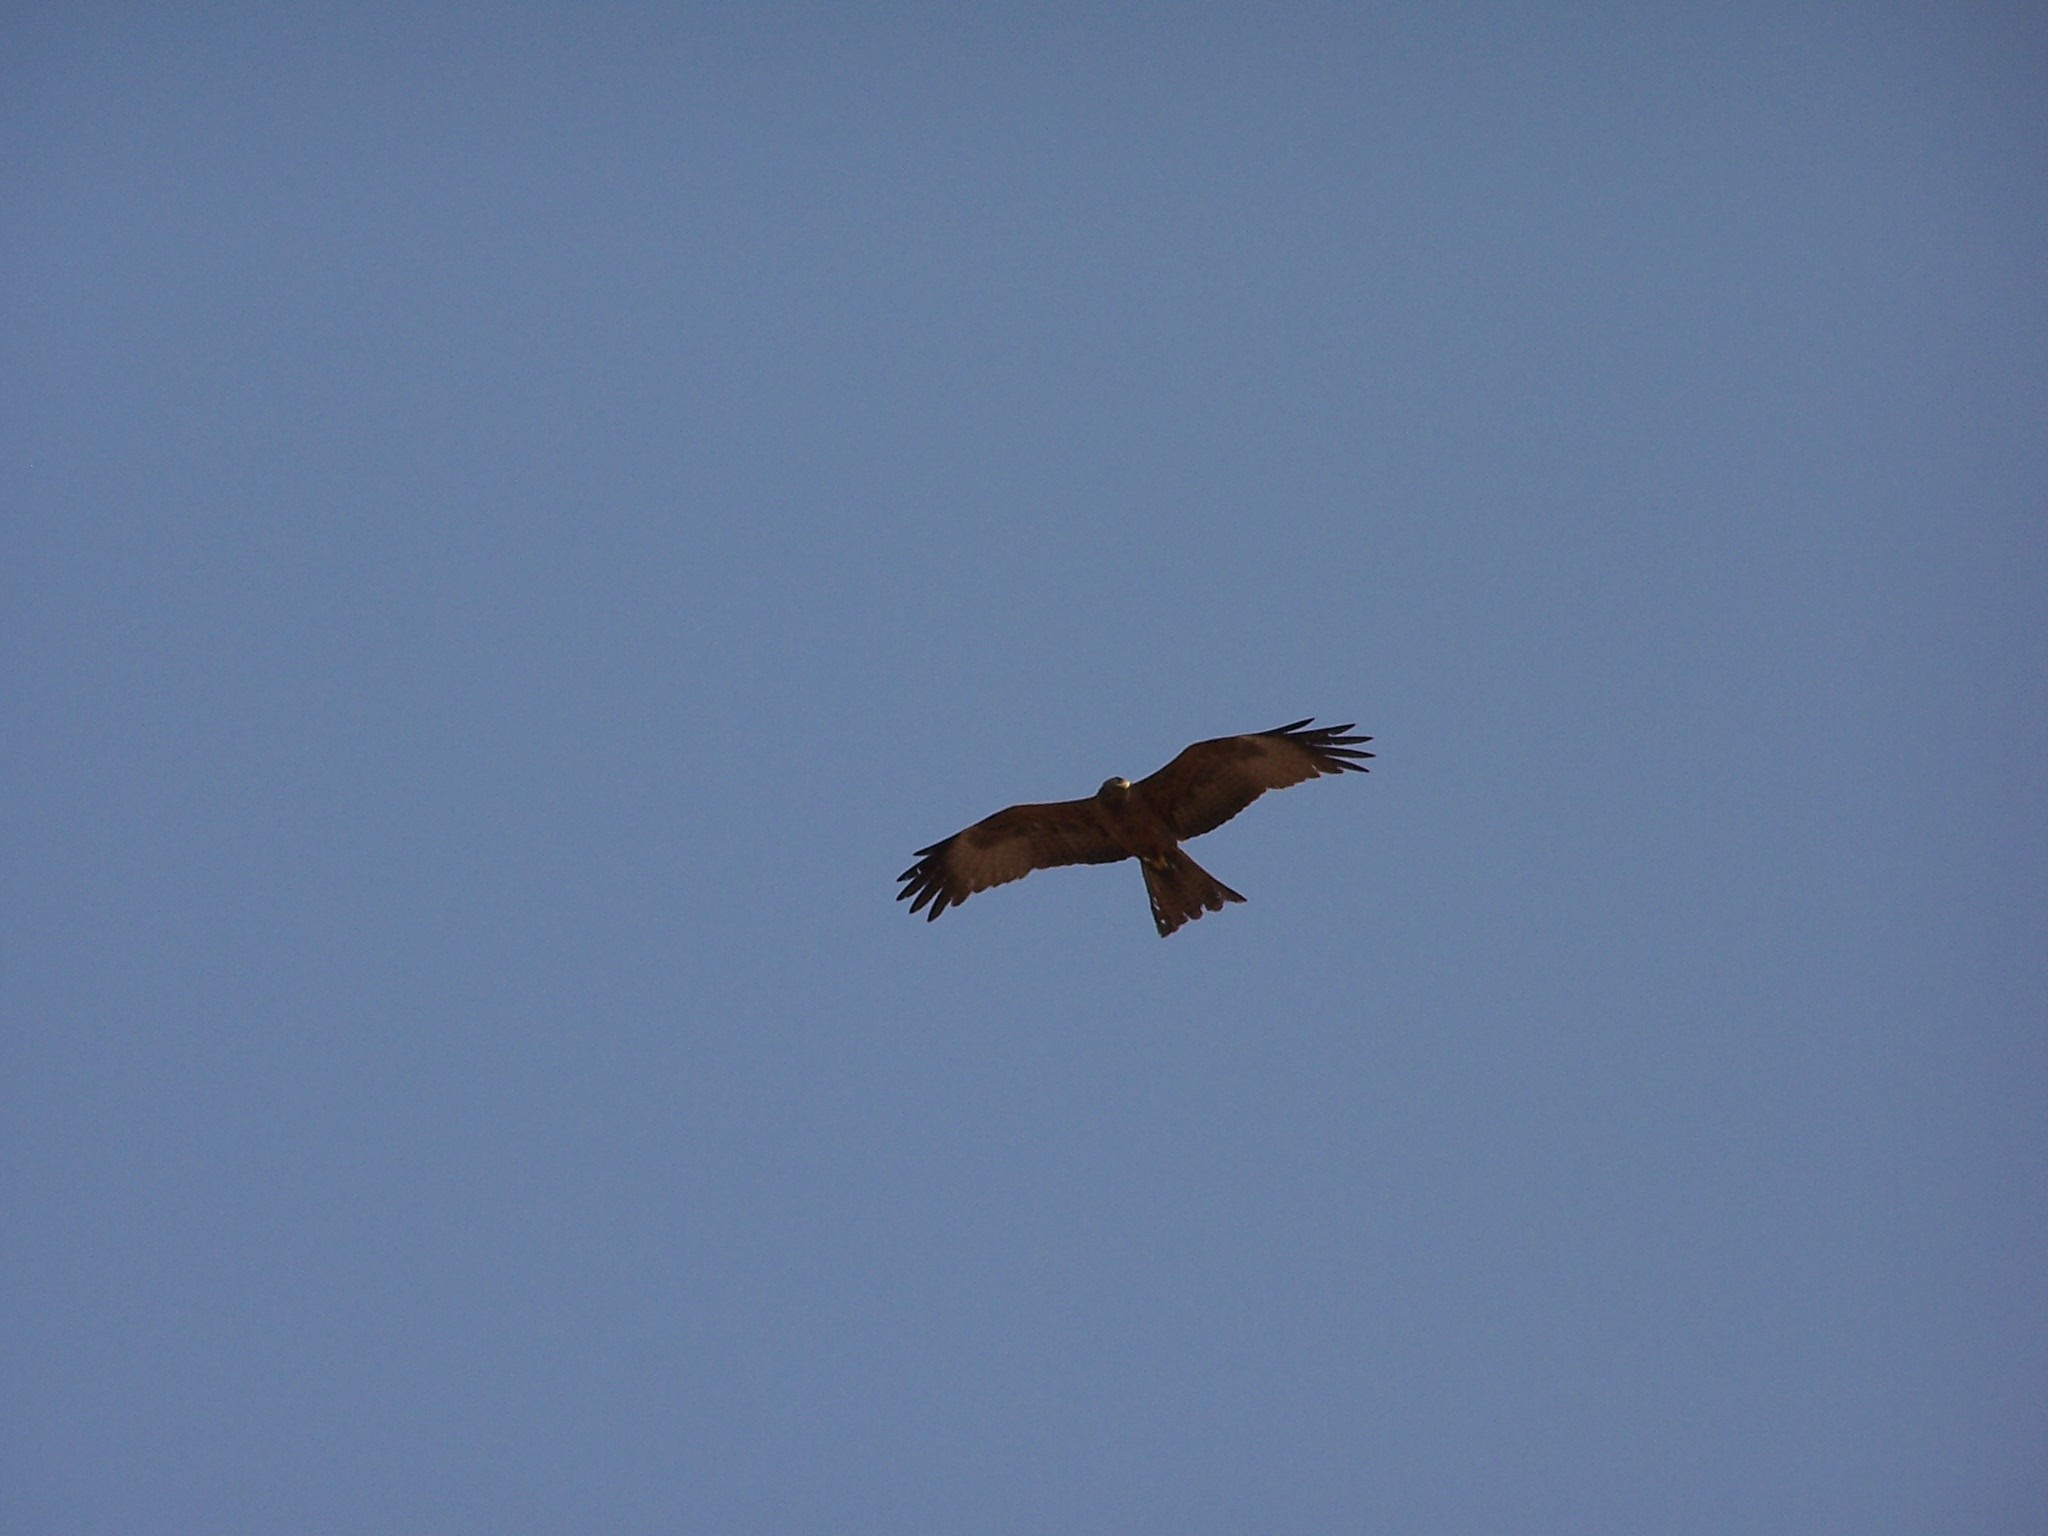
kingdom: Animalia
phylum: Chordata
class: Aves
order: Accipitriformes
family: Accipitridae
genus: Milvus
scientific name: Milvus migrans
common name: Black kite
